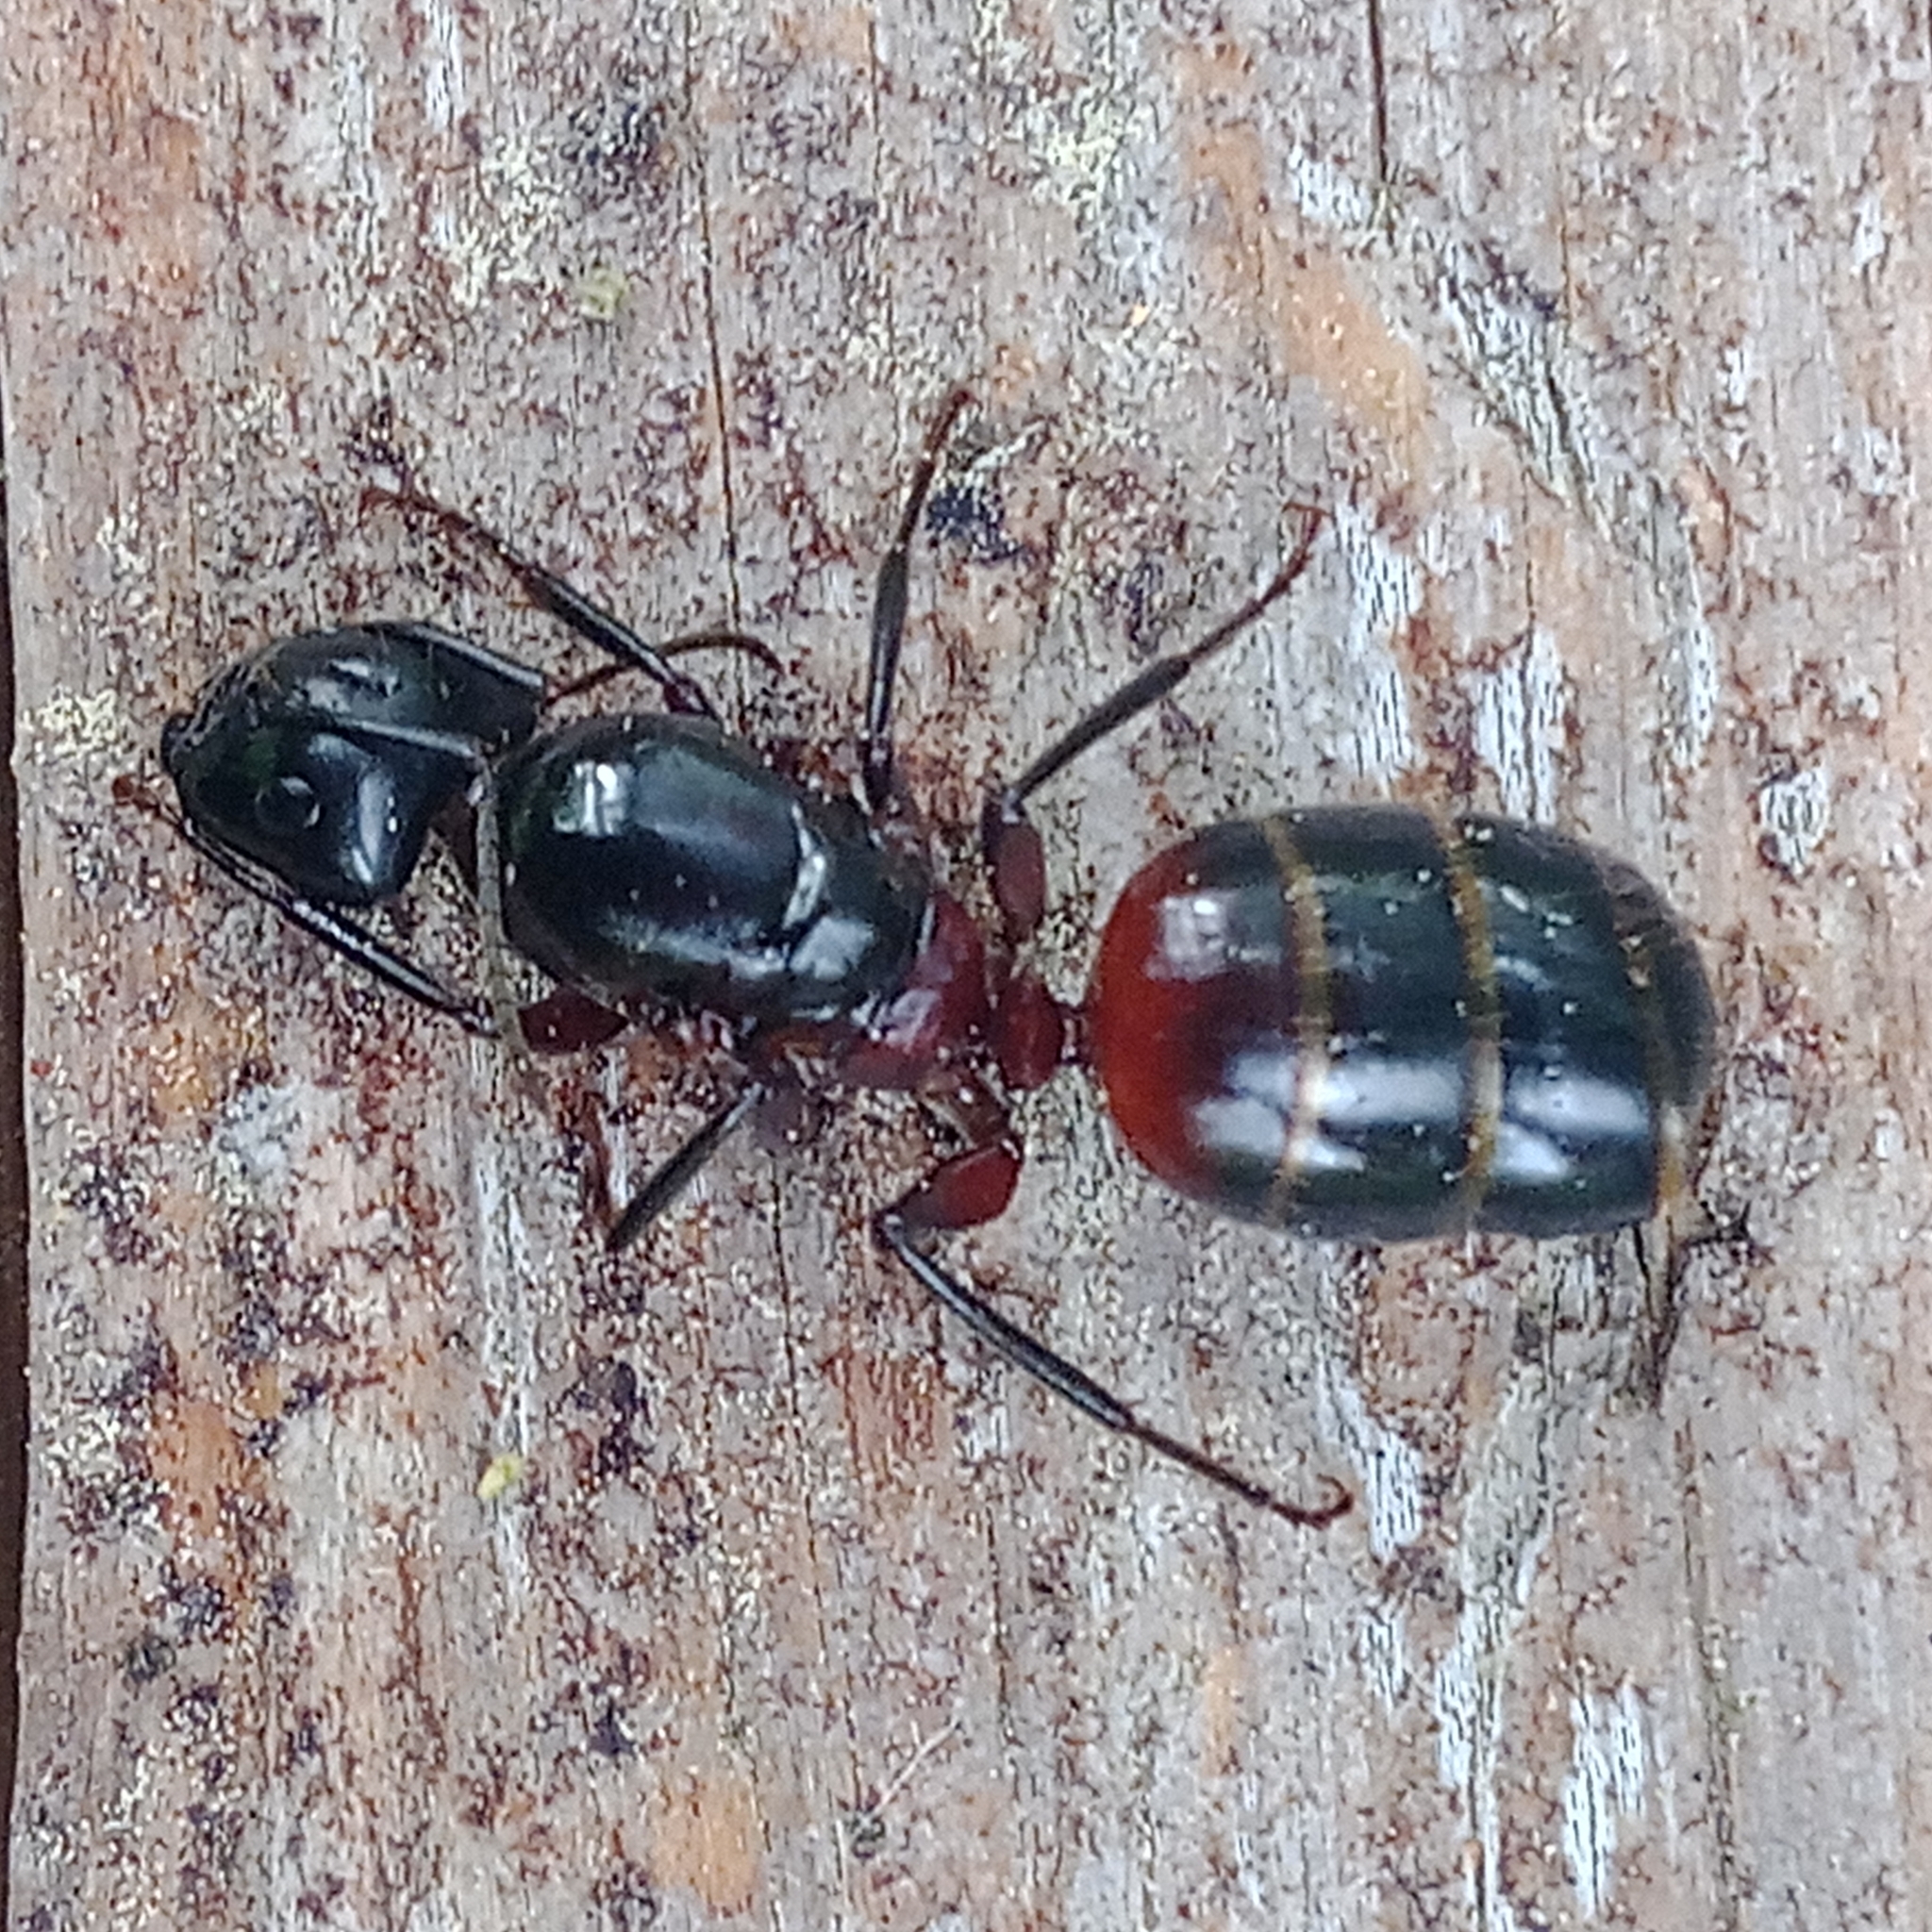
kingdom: Animalia
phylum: Arthropoda
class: Insecta
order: Hymenoptera
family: Formicidae
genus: Camponotus
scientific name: Camponotus ligniperdus
